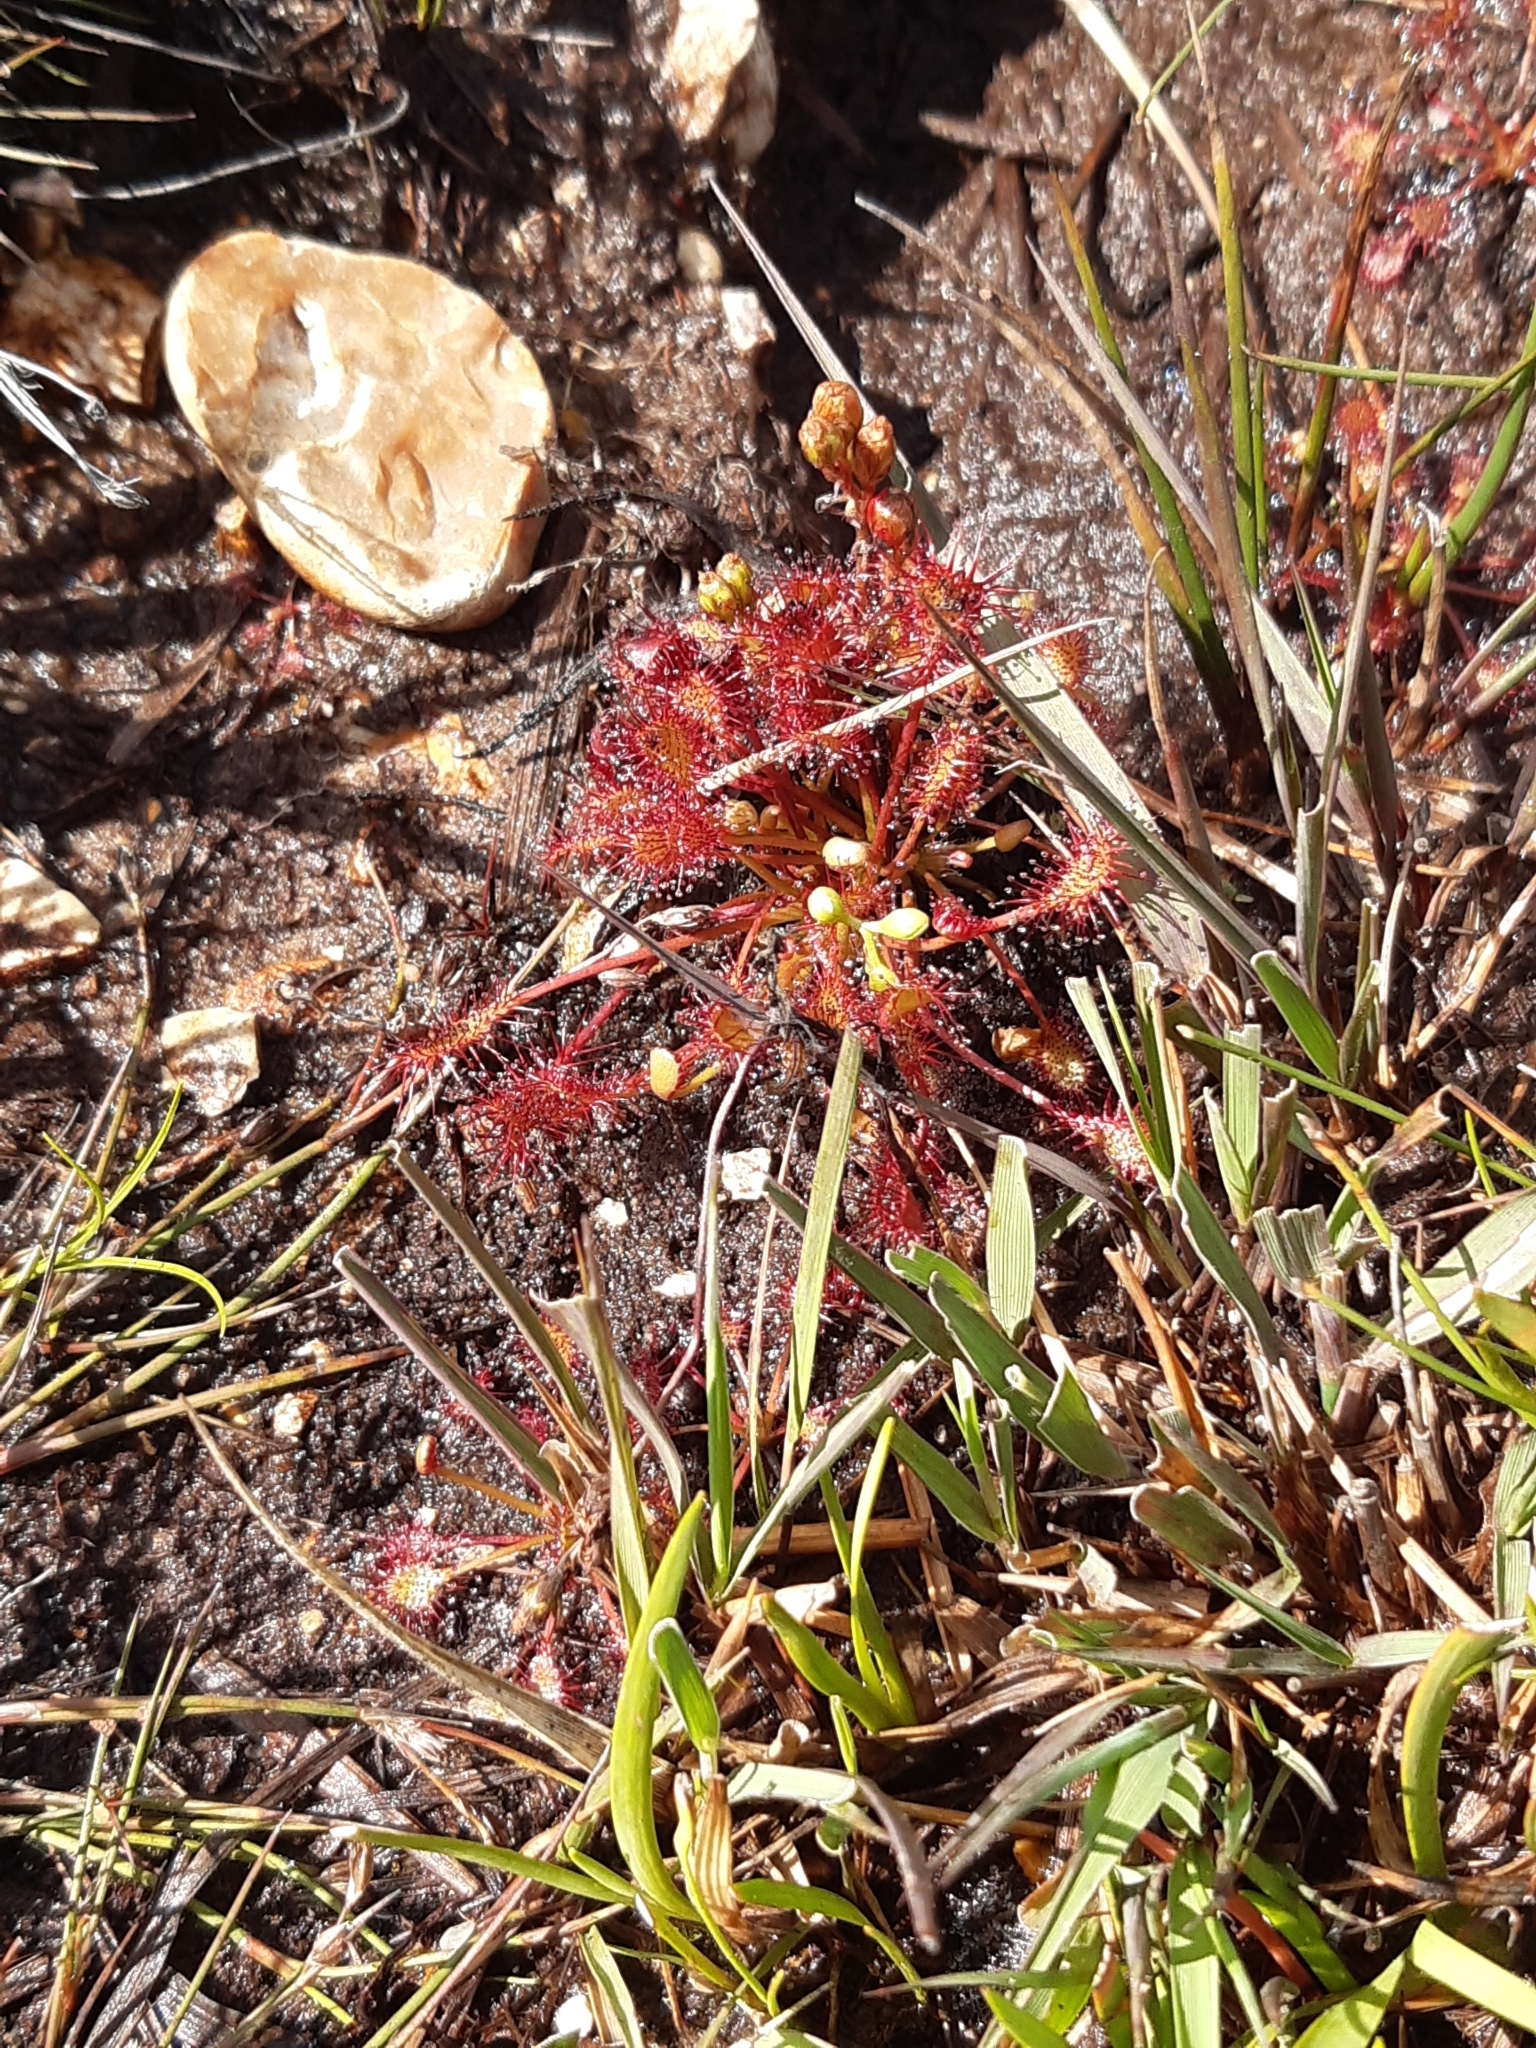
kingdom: Plantae
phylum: Tracheophyta
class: Magnoliopsida
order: Caryophyllales
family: Droseraceae
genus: Drosera
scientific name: Drosera intermedia
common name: Oblong-leaved sundew
